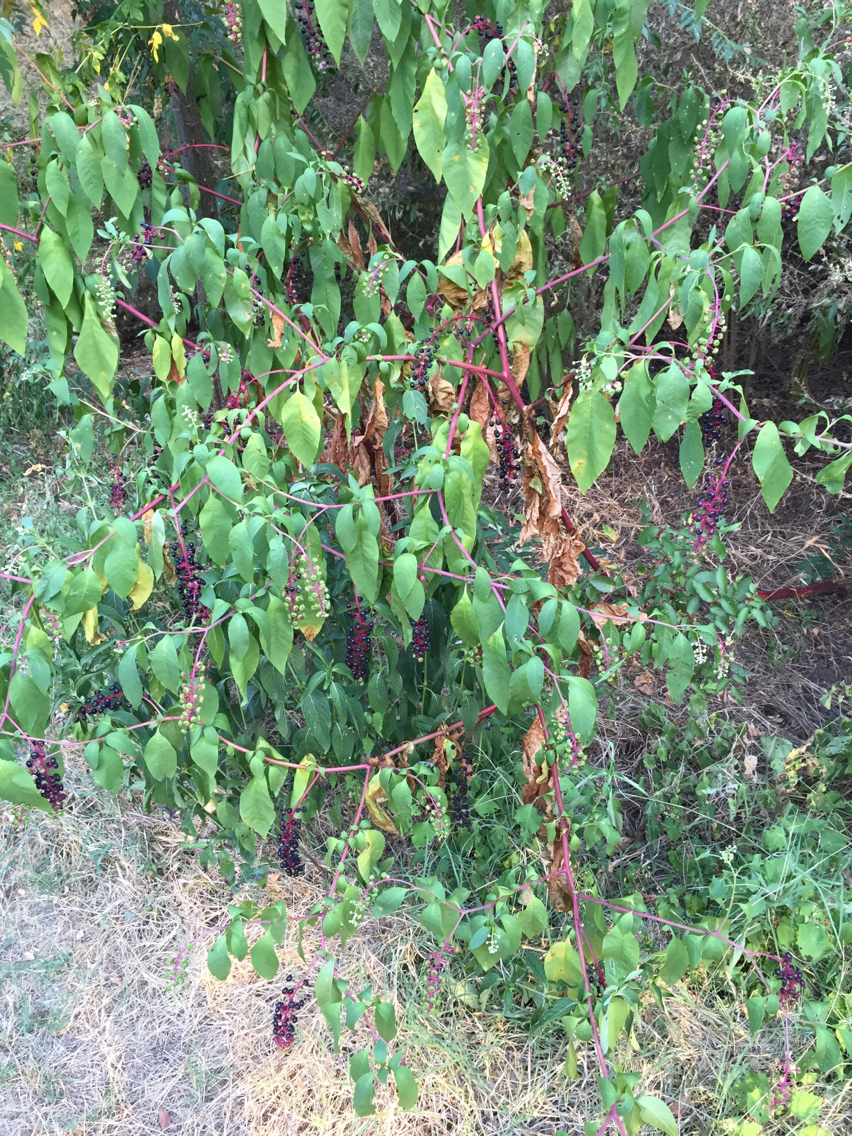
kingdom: Plantae
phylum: Tracheophyta
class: Magnoliopsida
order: Caryophyllales
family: Phytolaccaceae
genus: Phytolacca
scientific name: Phytolacca americana
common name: American pokeweed
